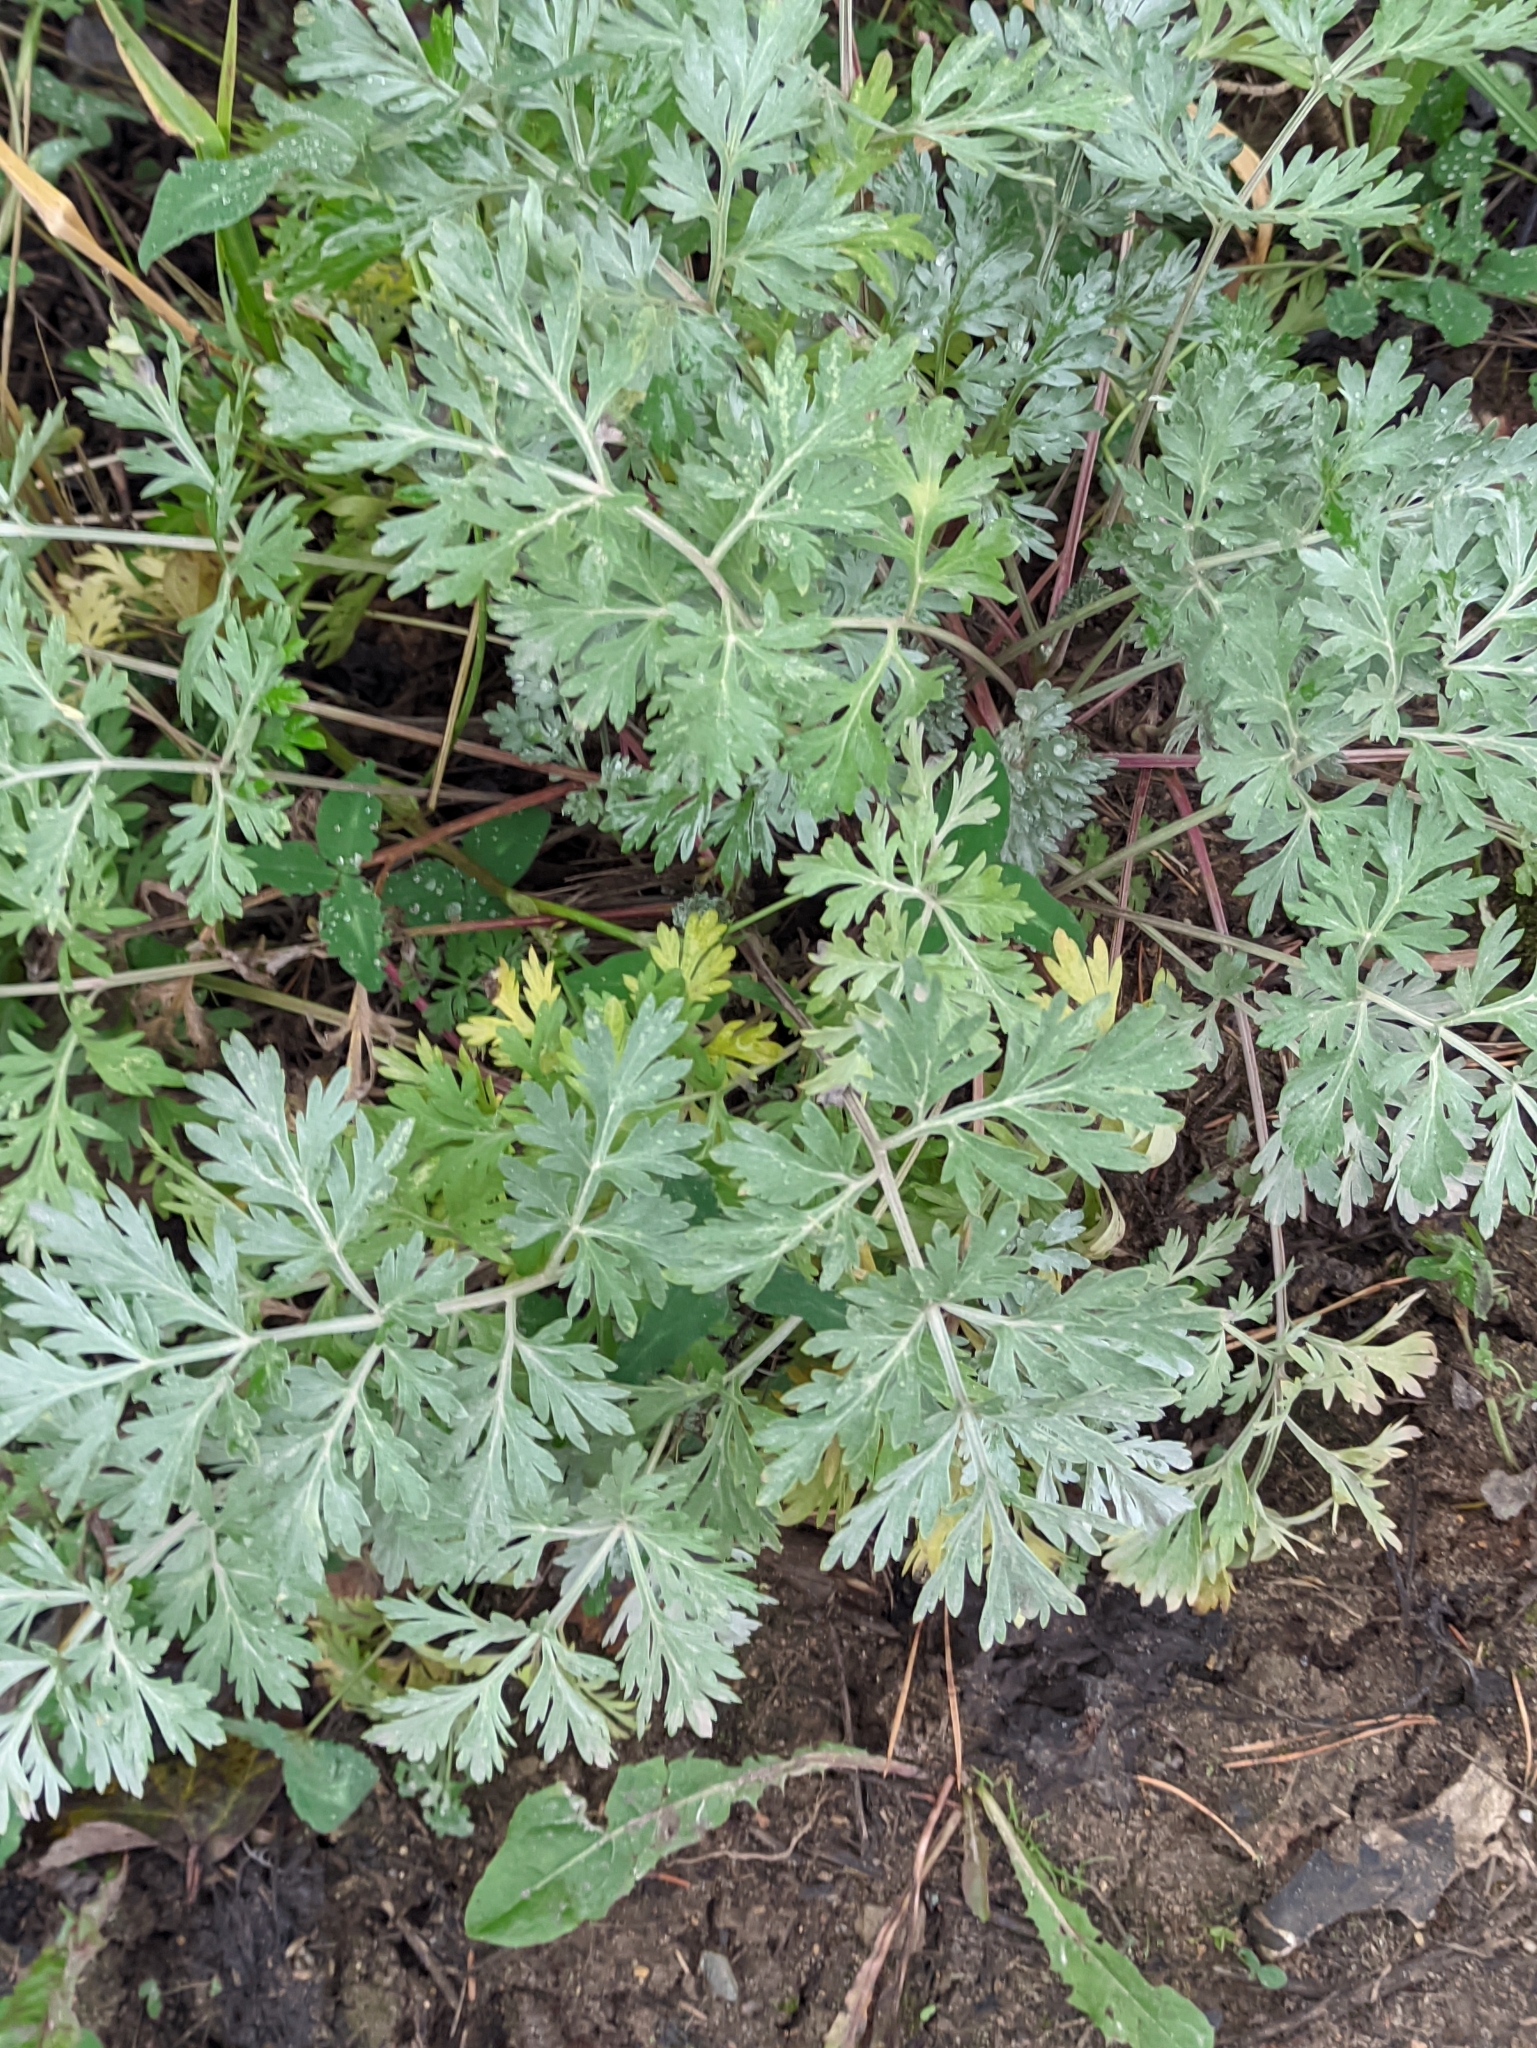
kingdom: Plantae
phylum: Tracheophyta
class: Magnoliopsida
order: Asterales
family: Asteraceae
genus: Artemisia
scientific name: Artemisia absinthium
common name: Wormwood
